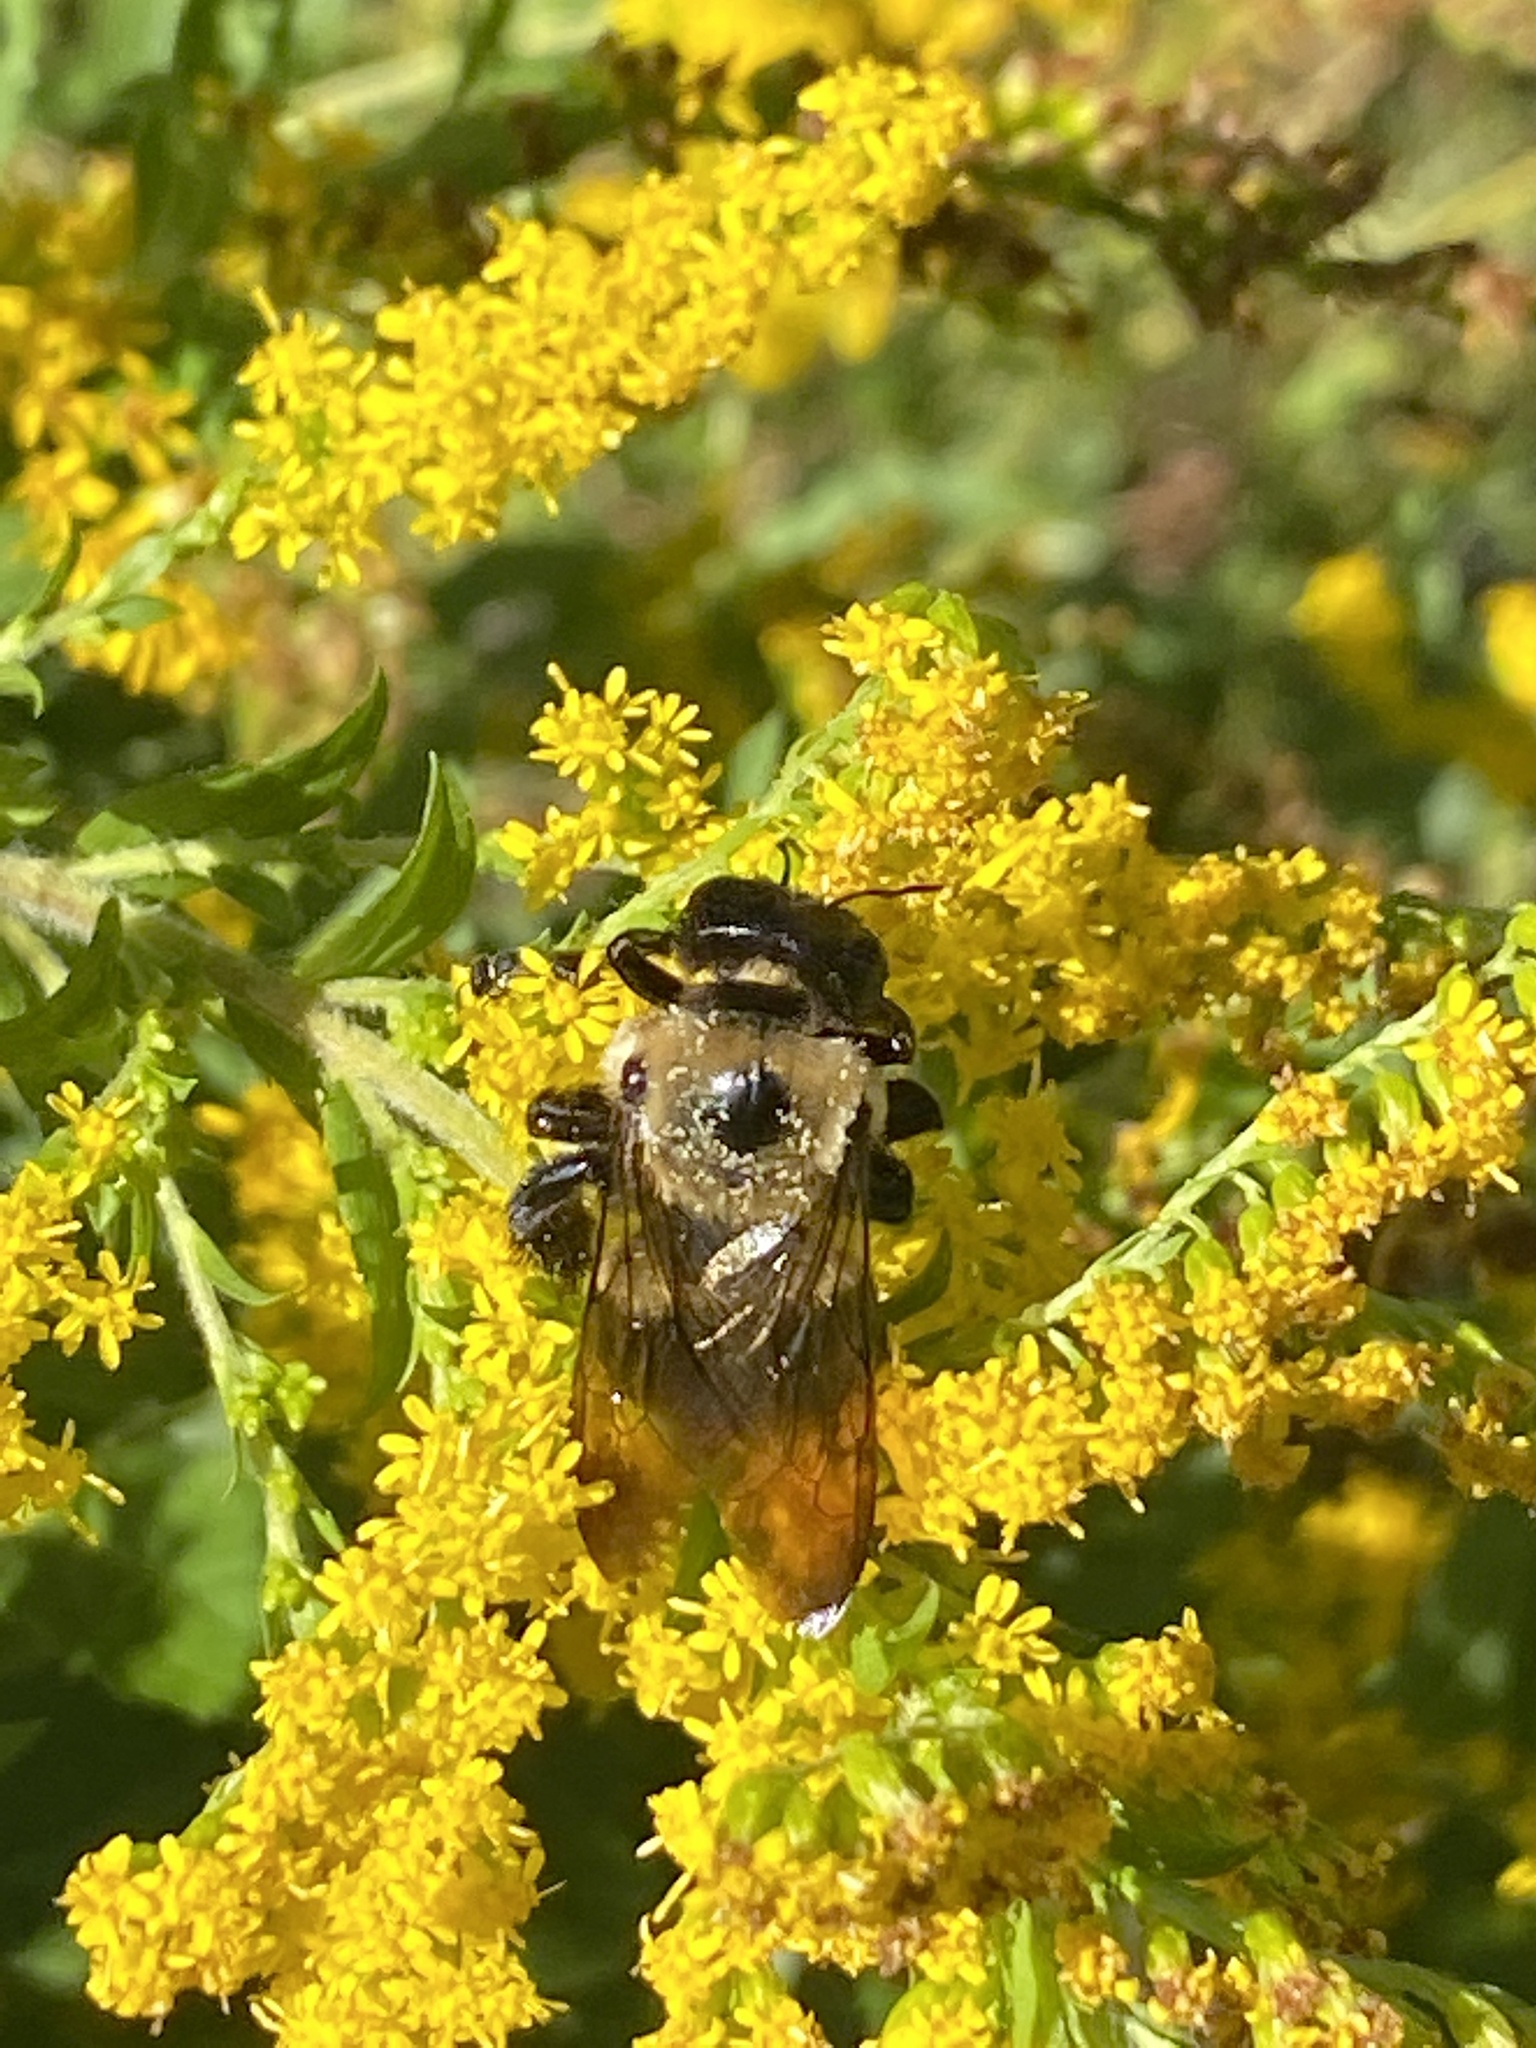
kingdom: Animalia
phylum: Arthropoda
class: Insecta
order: Hymenoptera
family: Apidae
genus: Xylocopa
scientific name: Xylocopa virginica
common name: Carpenter bee
